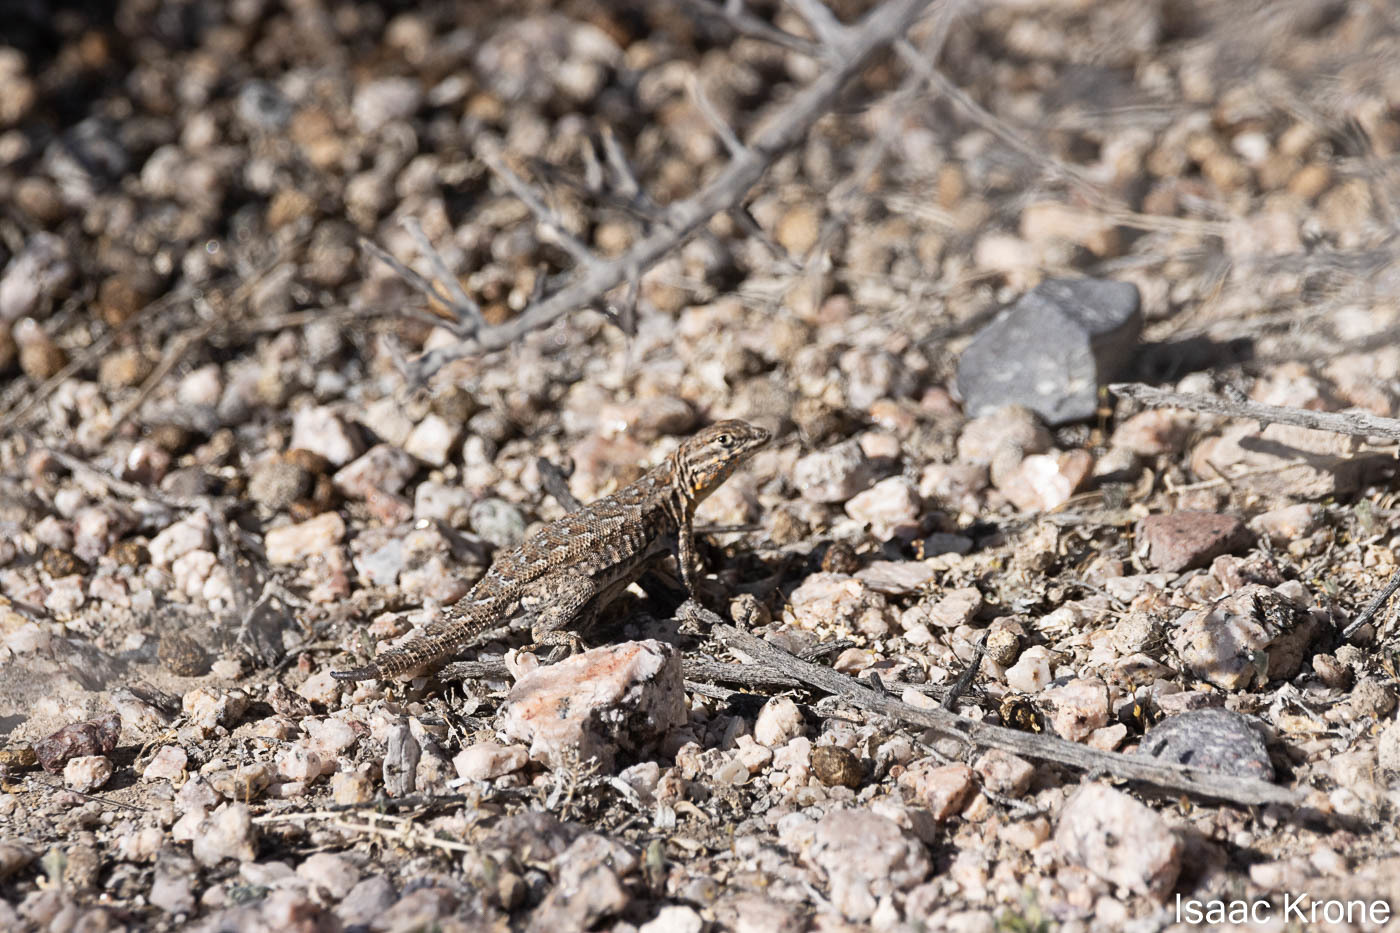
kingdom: Animalia
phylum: Chordata
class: Squamata
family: Phrynosomatidae
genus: Uta
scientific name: Uta stansburiana
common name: Side-blotched lizard
